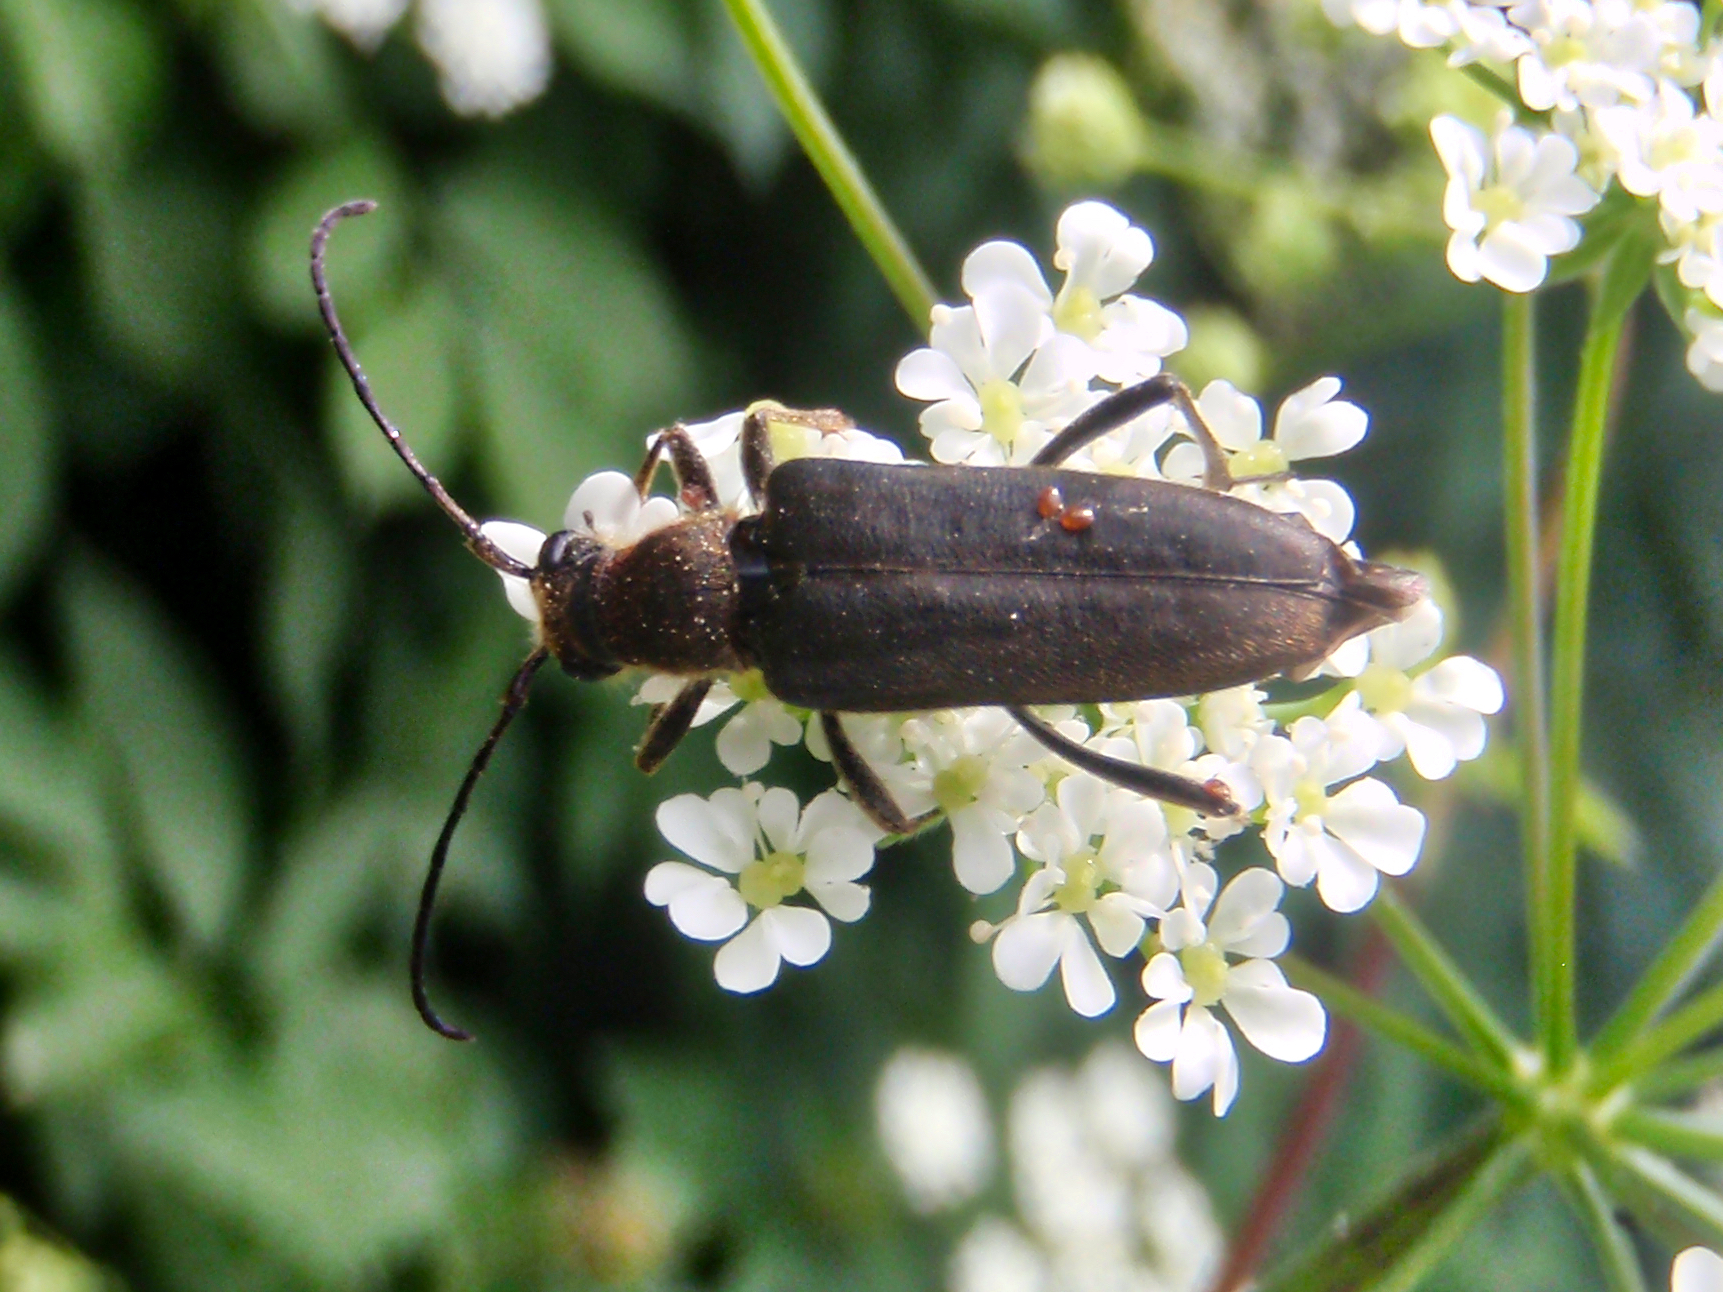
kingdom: Animalia
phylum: Arthropoda
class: Insecta
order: Coleoptera
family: Cerambycidae
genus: Anastrangalia
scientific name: Anastrangalia dubia
